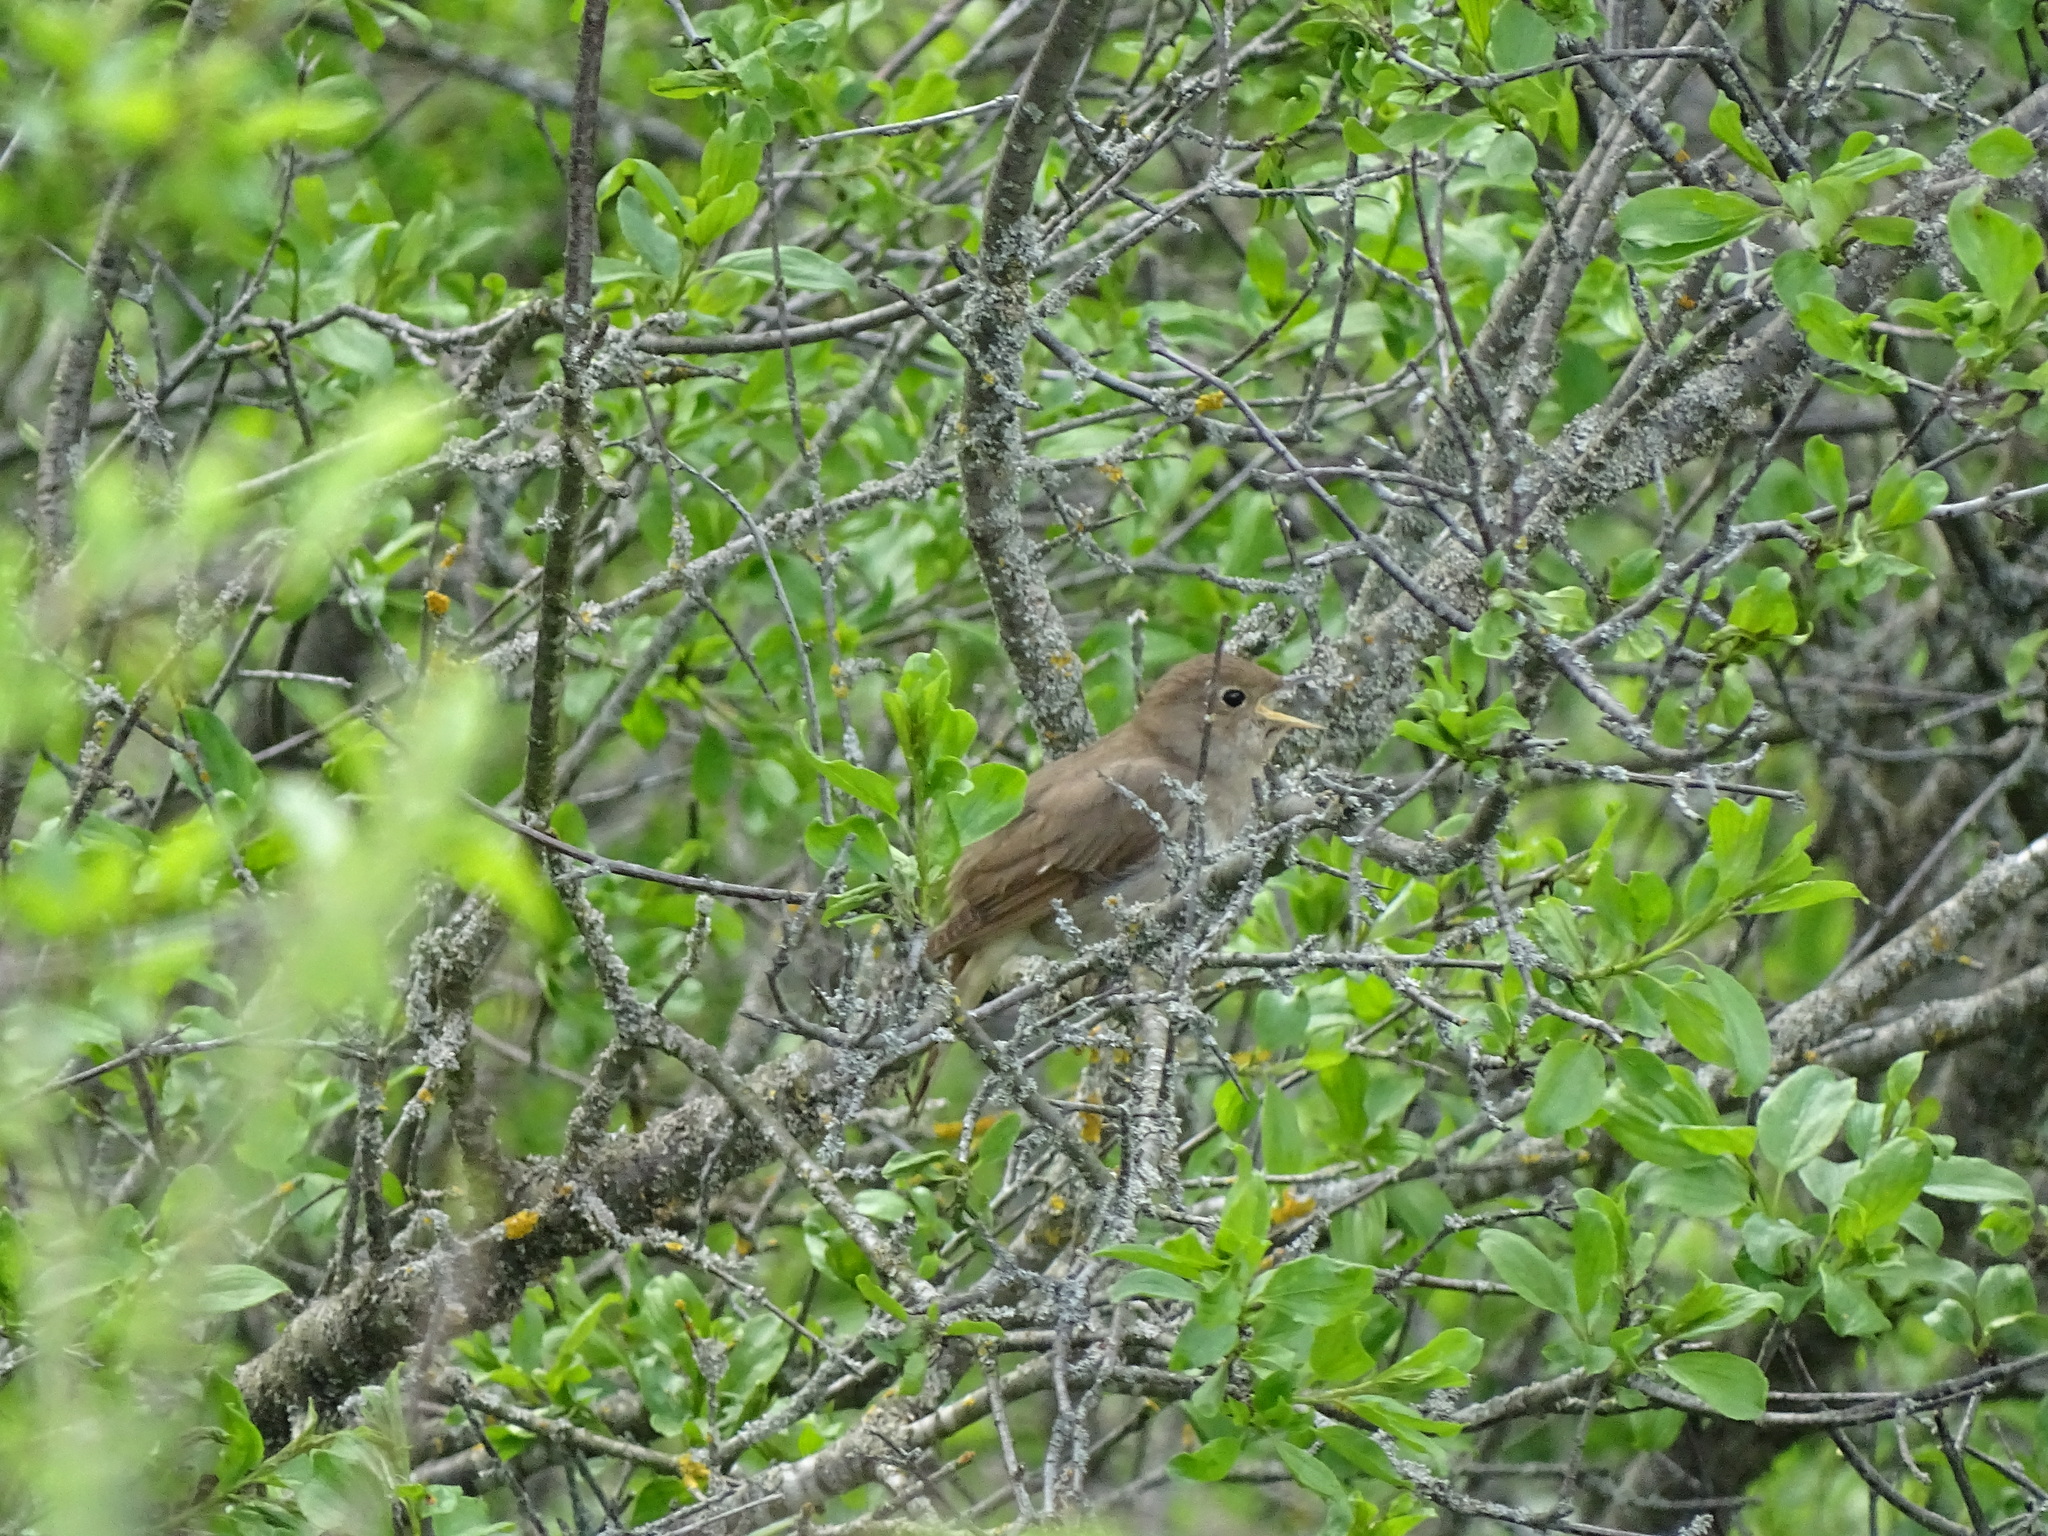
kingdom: Animalia
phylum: Chordata
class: Aves
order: Passeriformes
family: Muscicapidae
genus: Luscinia
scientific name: Luscinia luscinia
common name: Thrush nightingale
